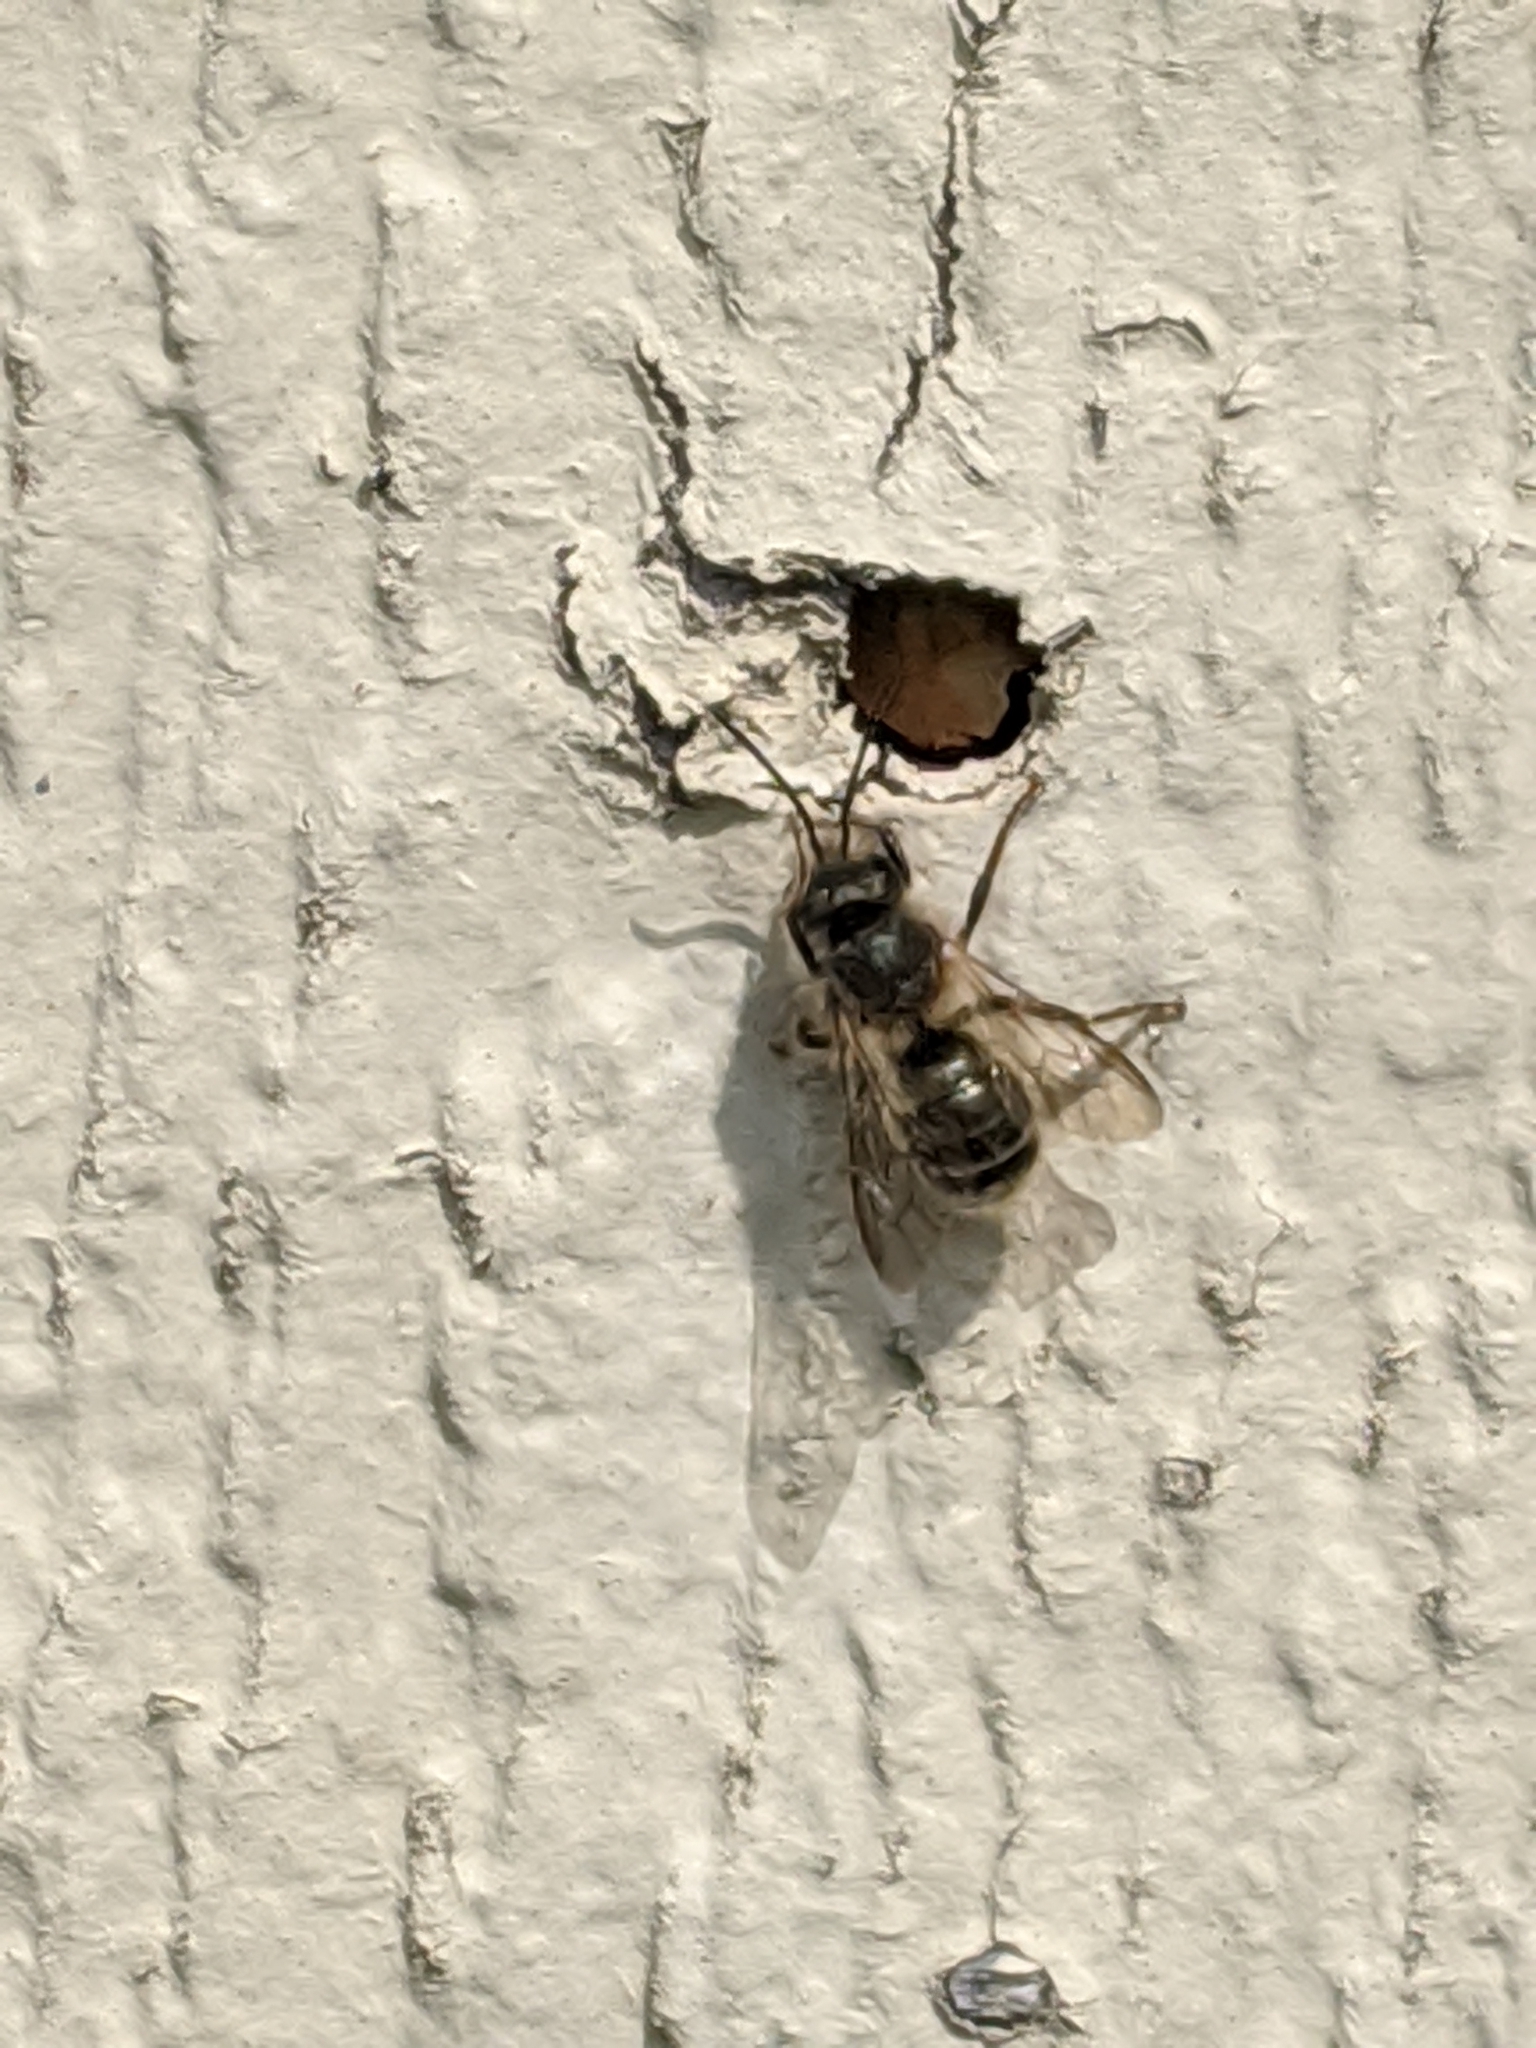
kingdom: Animalia
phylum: Arthropoda
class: Insecta
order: Hymenoptera
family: Megachilidae
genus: Osmia
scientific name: Osmia
